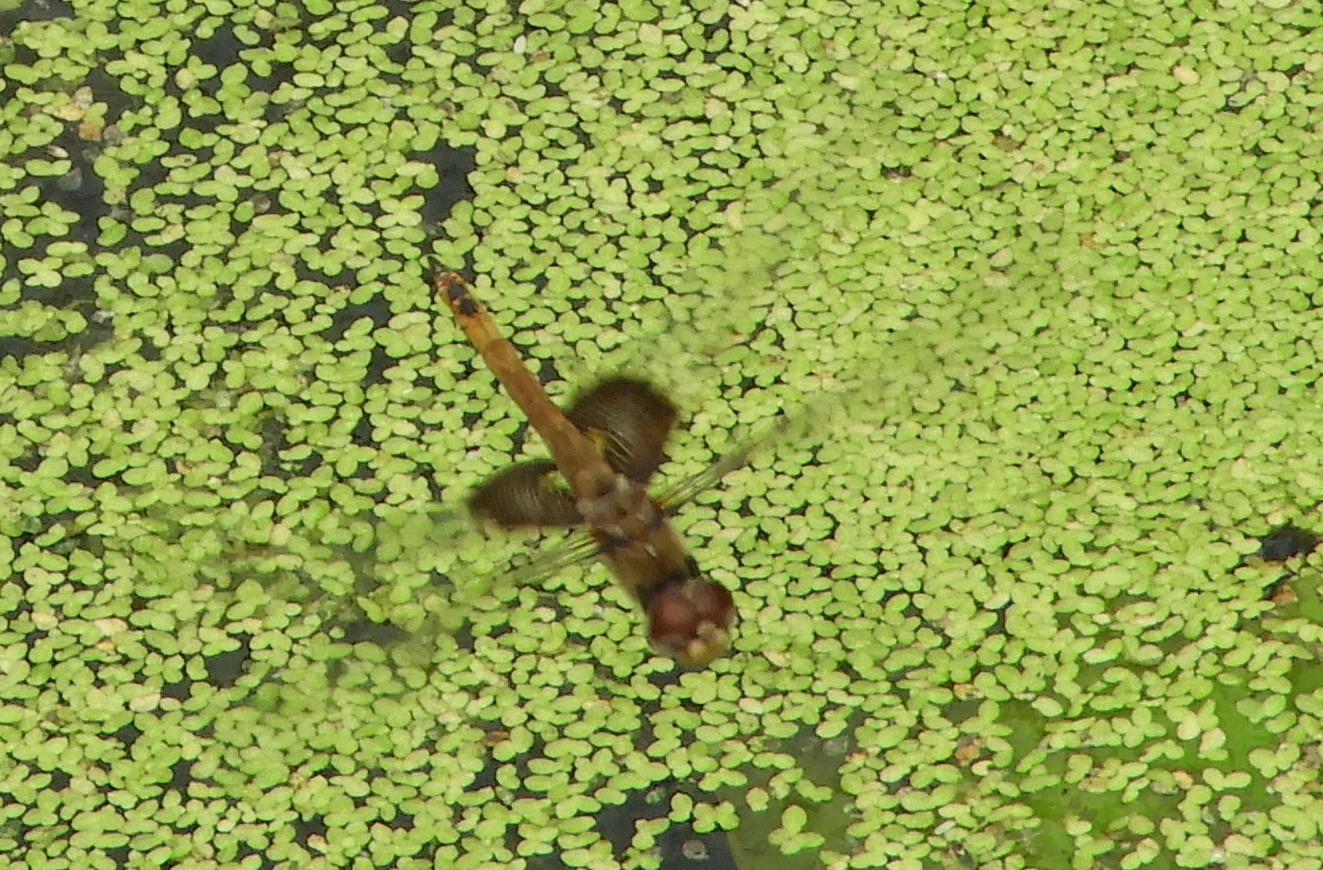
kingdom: Animalia
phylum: Arthropoda
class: Insecta
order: Odonata
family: Libellulidae
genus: Tramea
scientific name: Tramea onusta
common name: Red saddlebags
